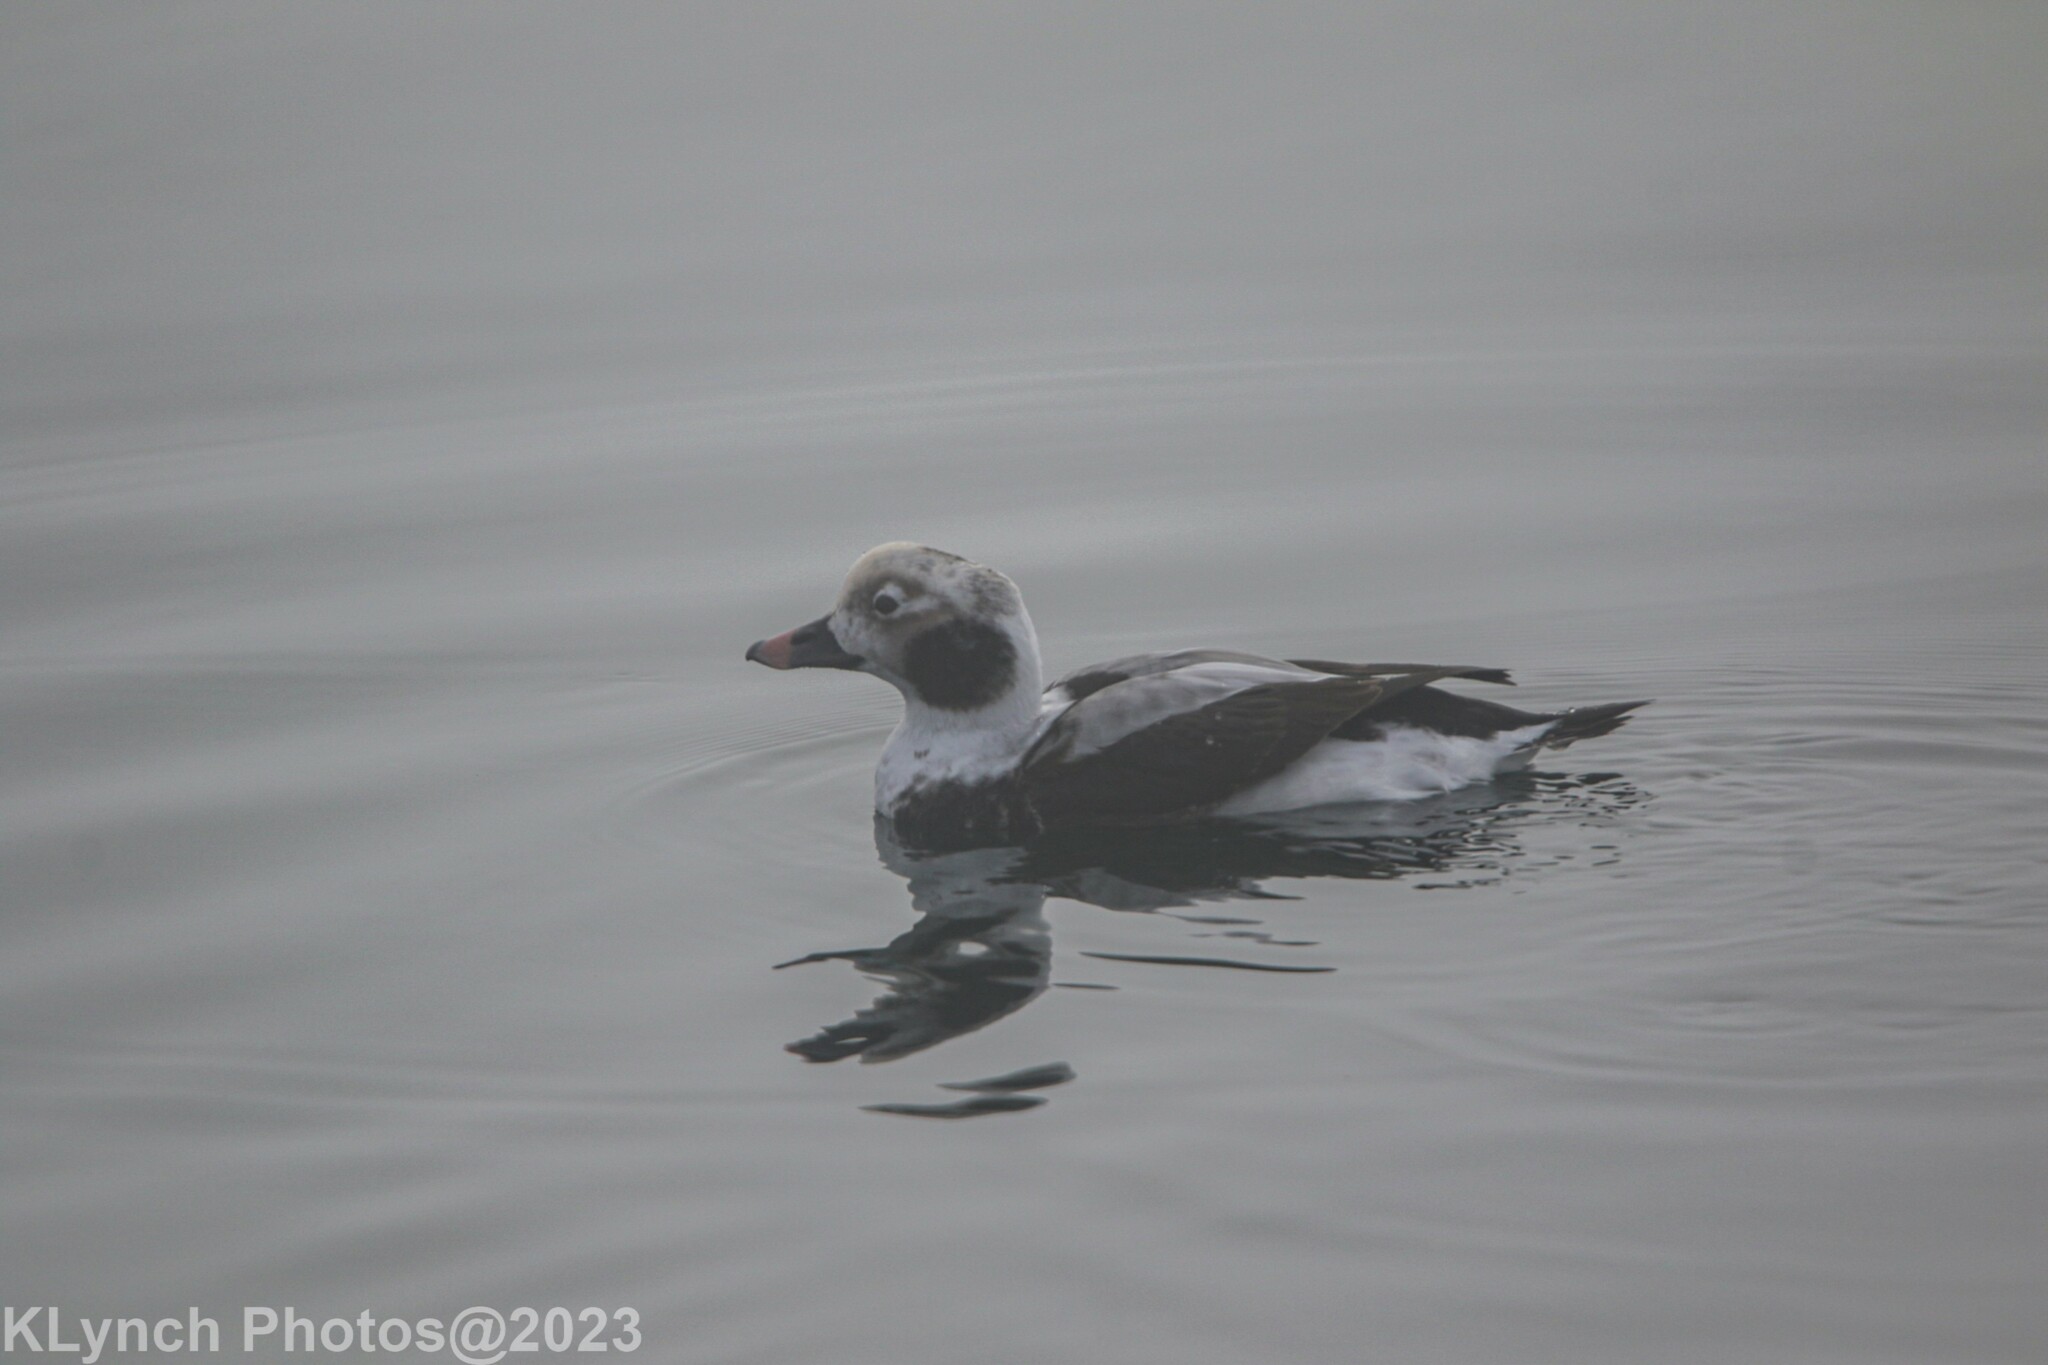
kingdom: Animalia
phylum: Chordata
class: Aves
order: Anseriformes
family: Anatidae
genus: Clangula
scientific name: Clangula hyemalis
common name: Long-tailed duck
